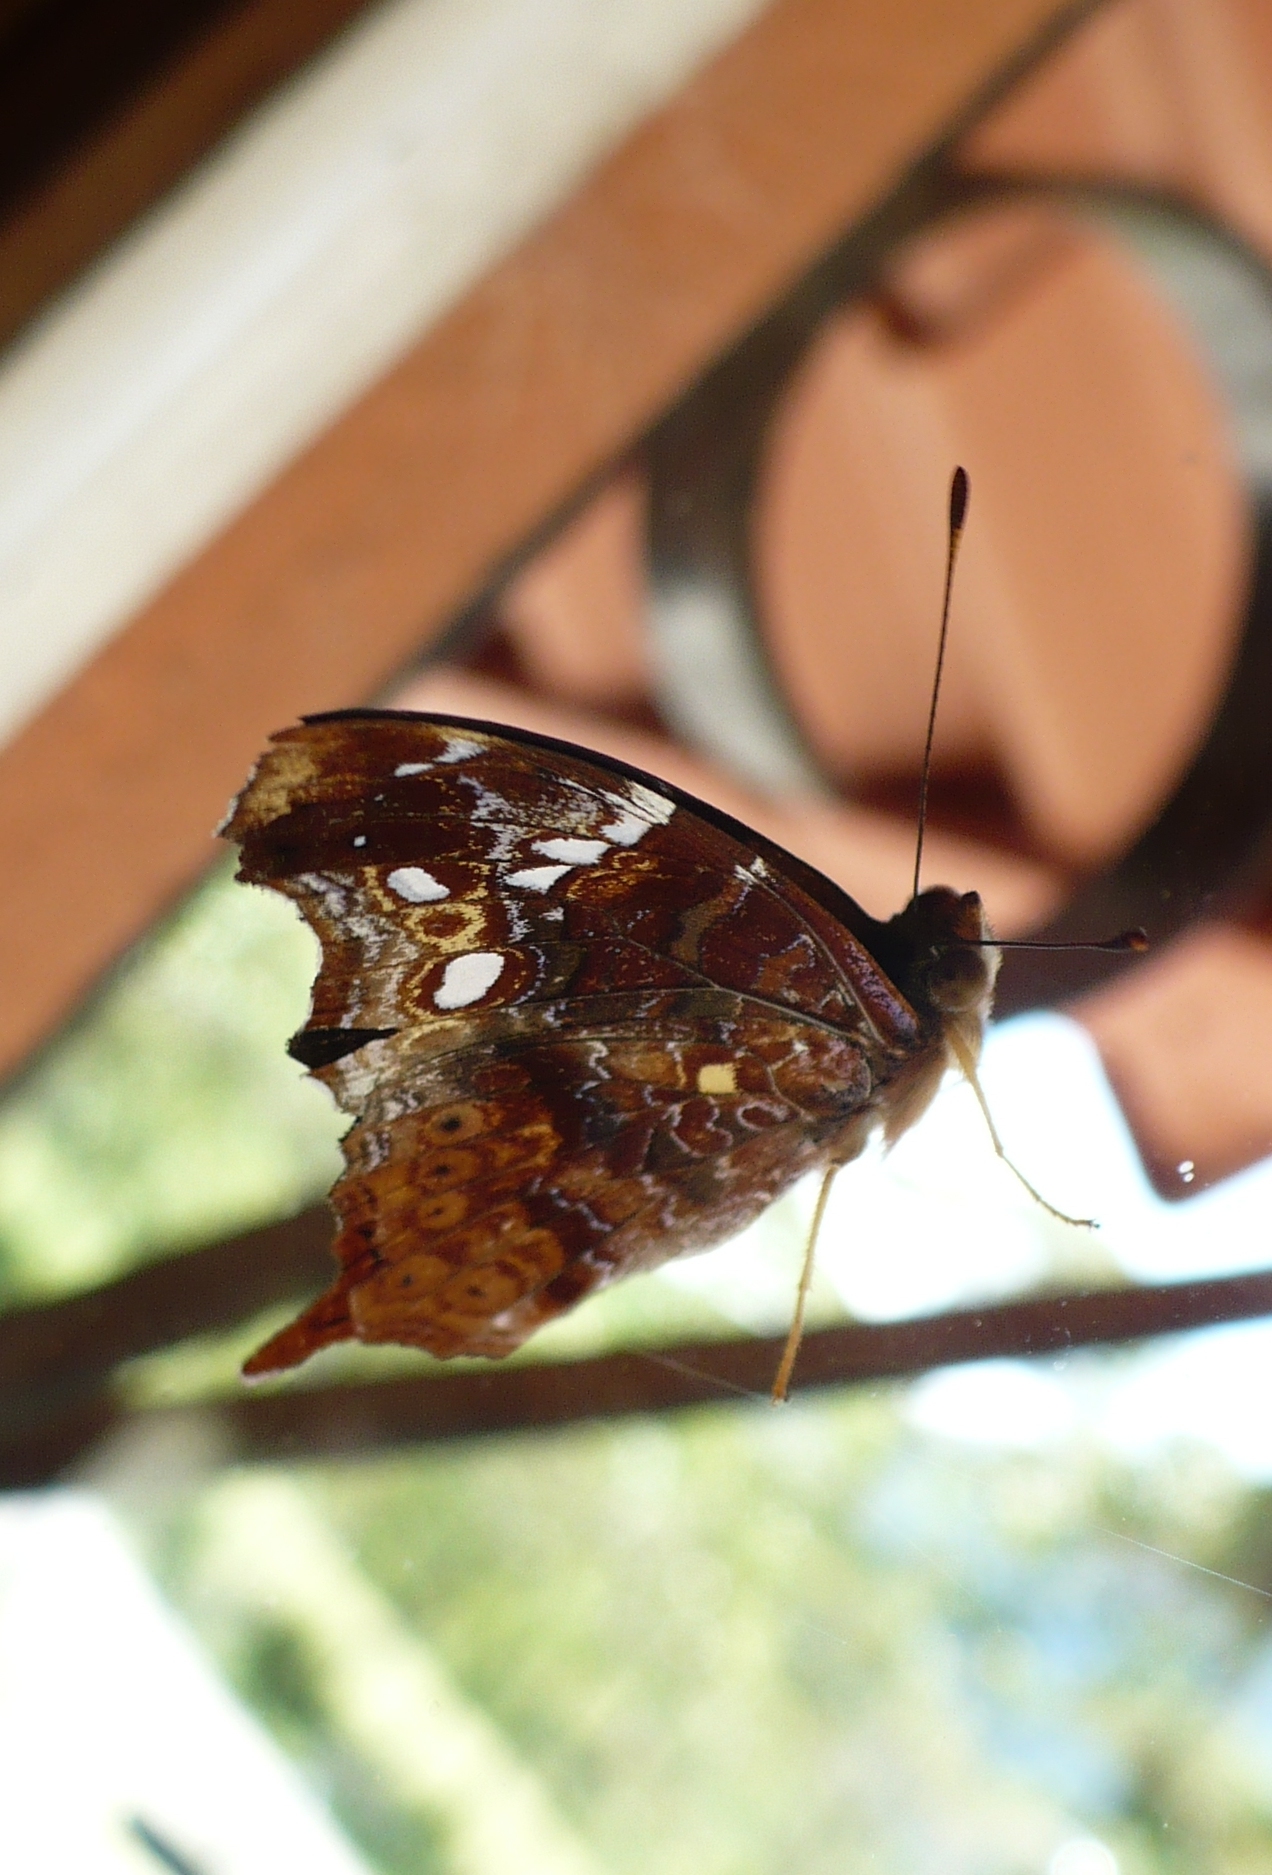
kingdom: Animalia
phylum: Arthropoda
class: Insecta
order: Lepidoptera
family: Nymphalidae
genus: Hypanartia
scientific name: Hypanartia trimaculata
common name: Reddish mapwing
